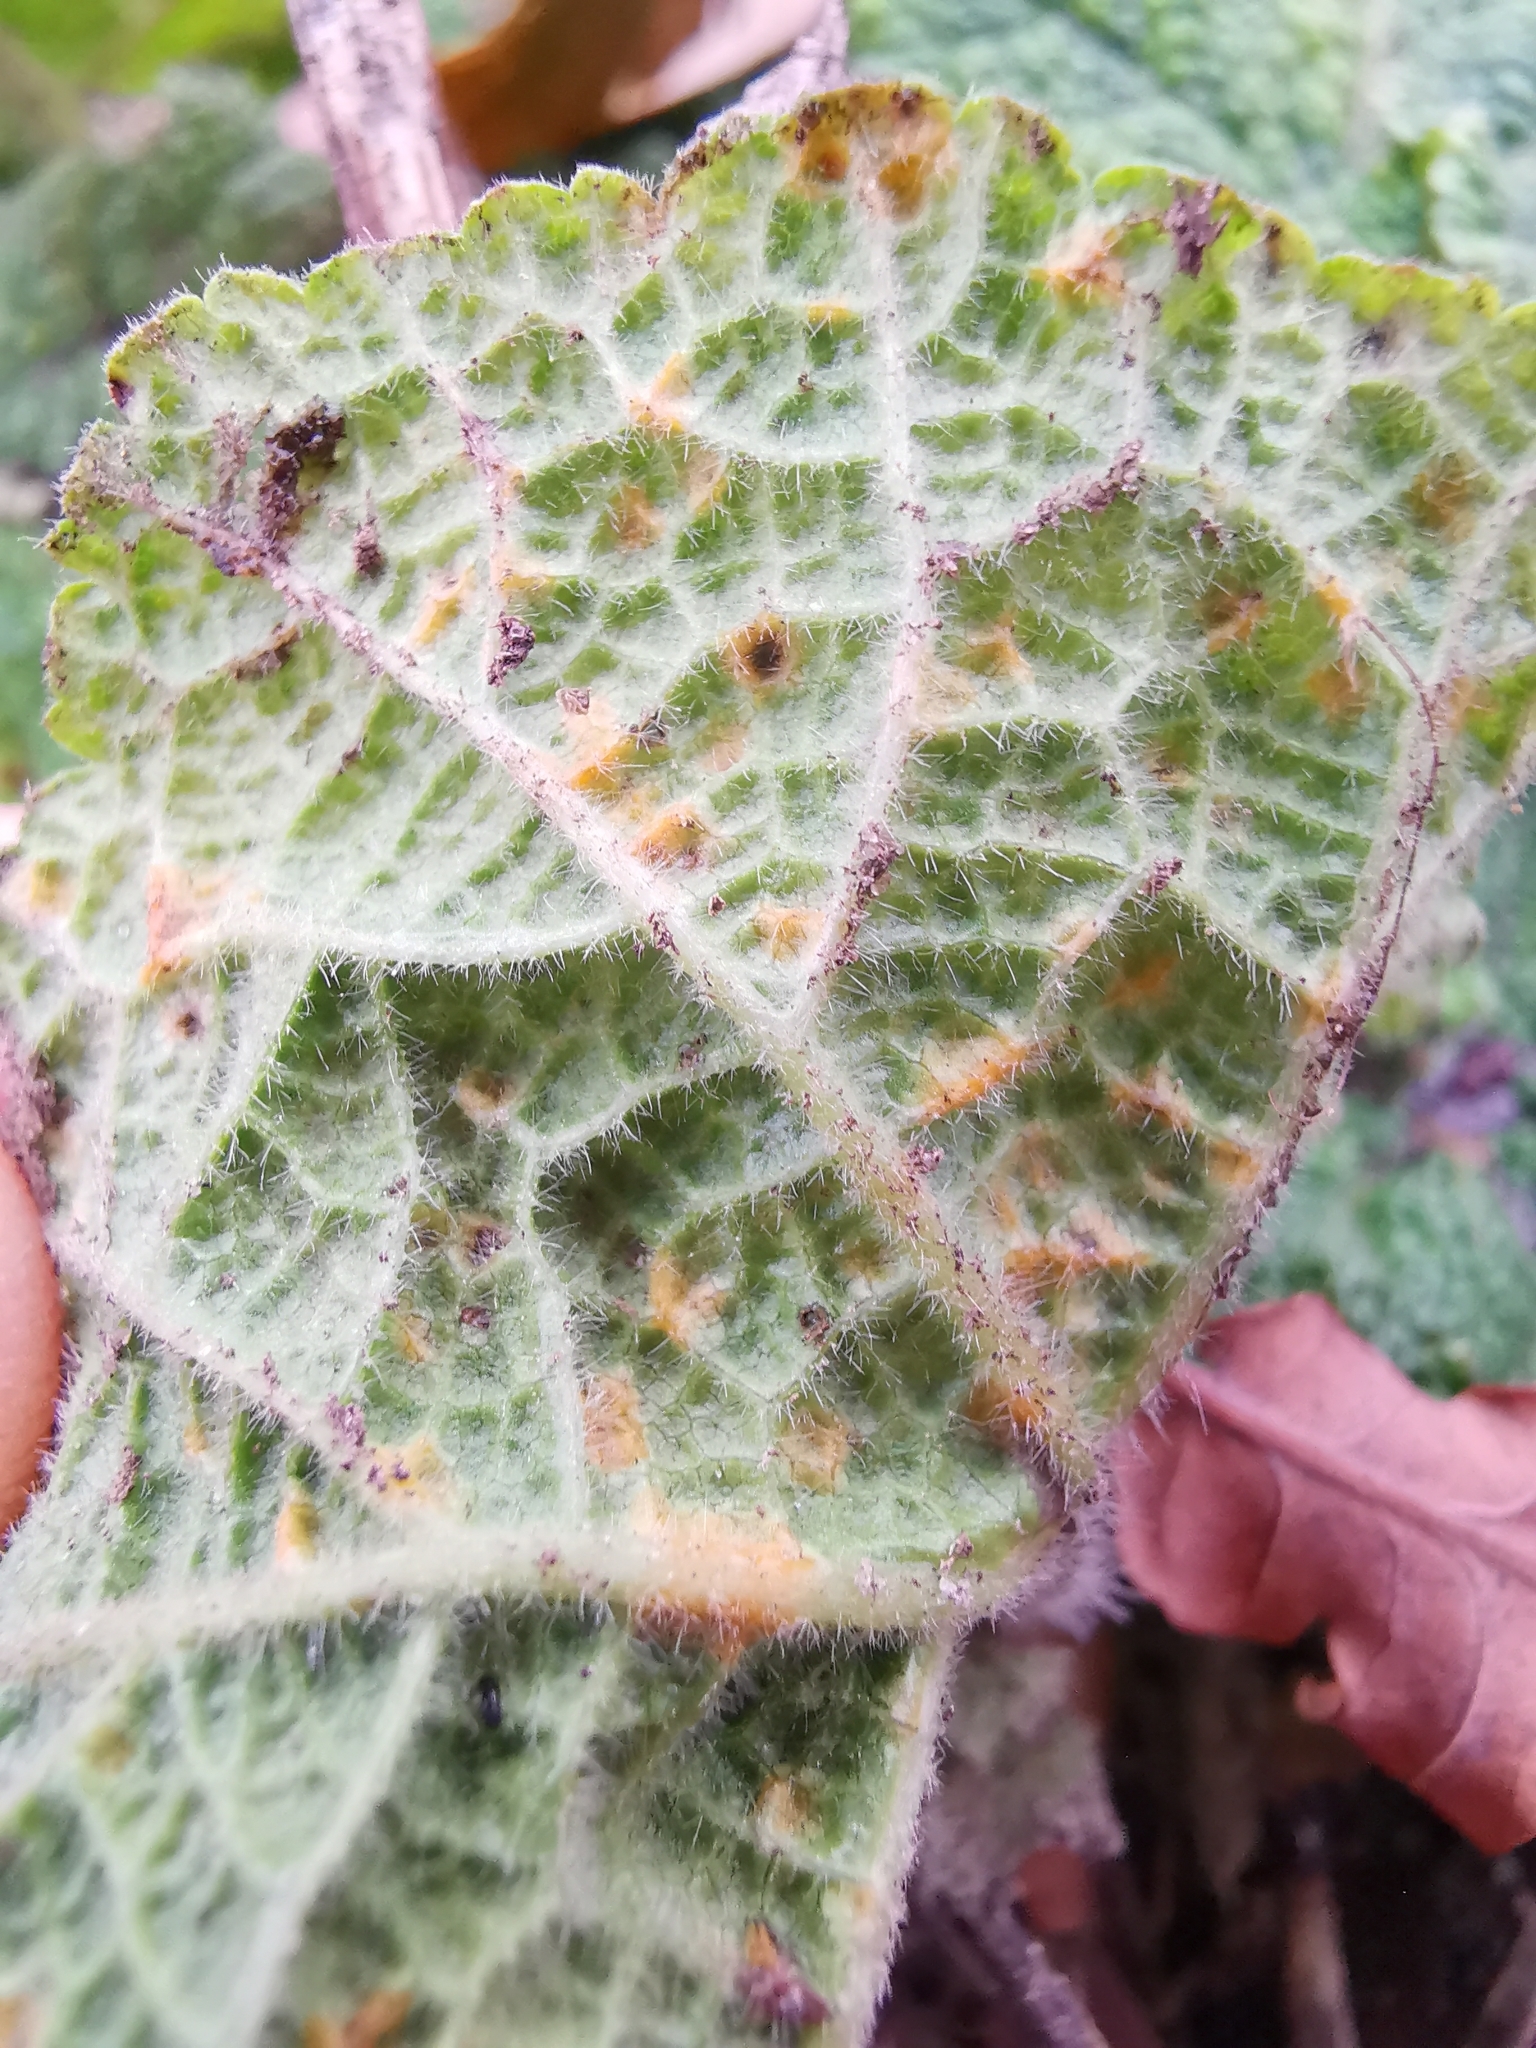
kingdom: Fungi
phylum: Basidiomycota
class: Pucciniomycetes
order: Pucciniales
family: Pucciniaceae
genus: Puccinia
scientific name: Puccinia malvacearum
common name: Hollyhock rust
